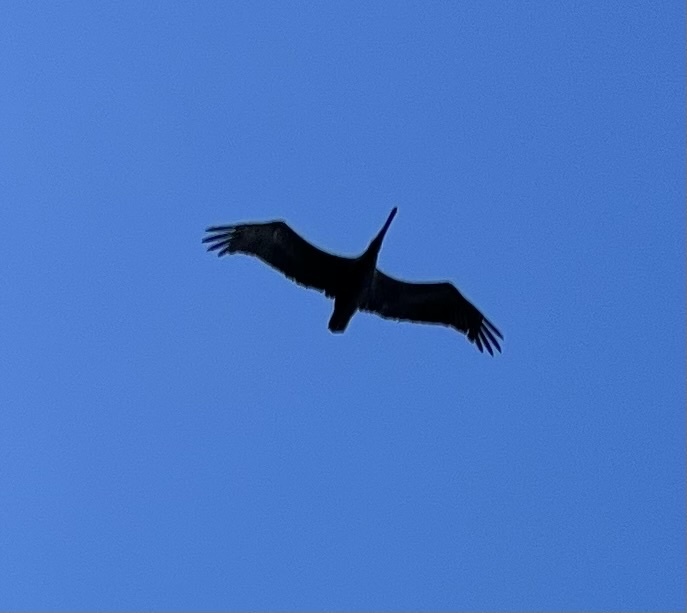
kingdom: Animalia
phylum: Chordata
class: Aves
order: Pelecaniformes
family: Pelecanidae
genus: Pelecanus
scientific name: Pelecanus occidentalis
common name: Brown pelican
